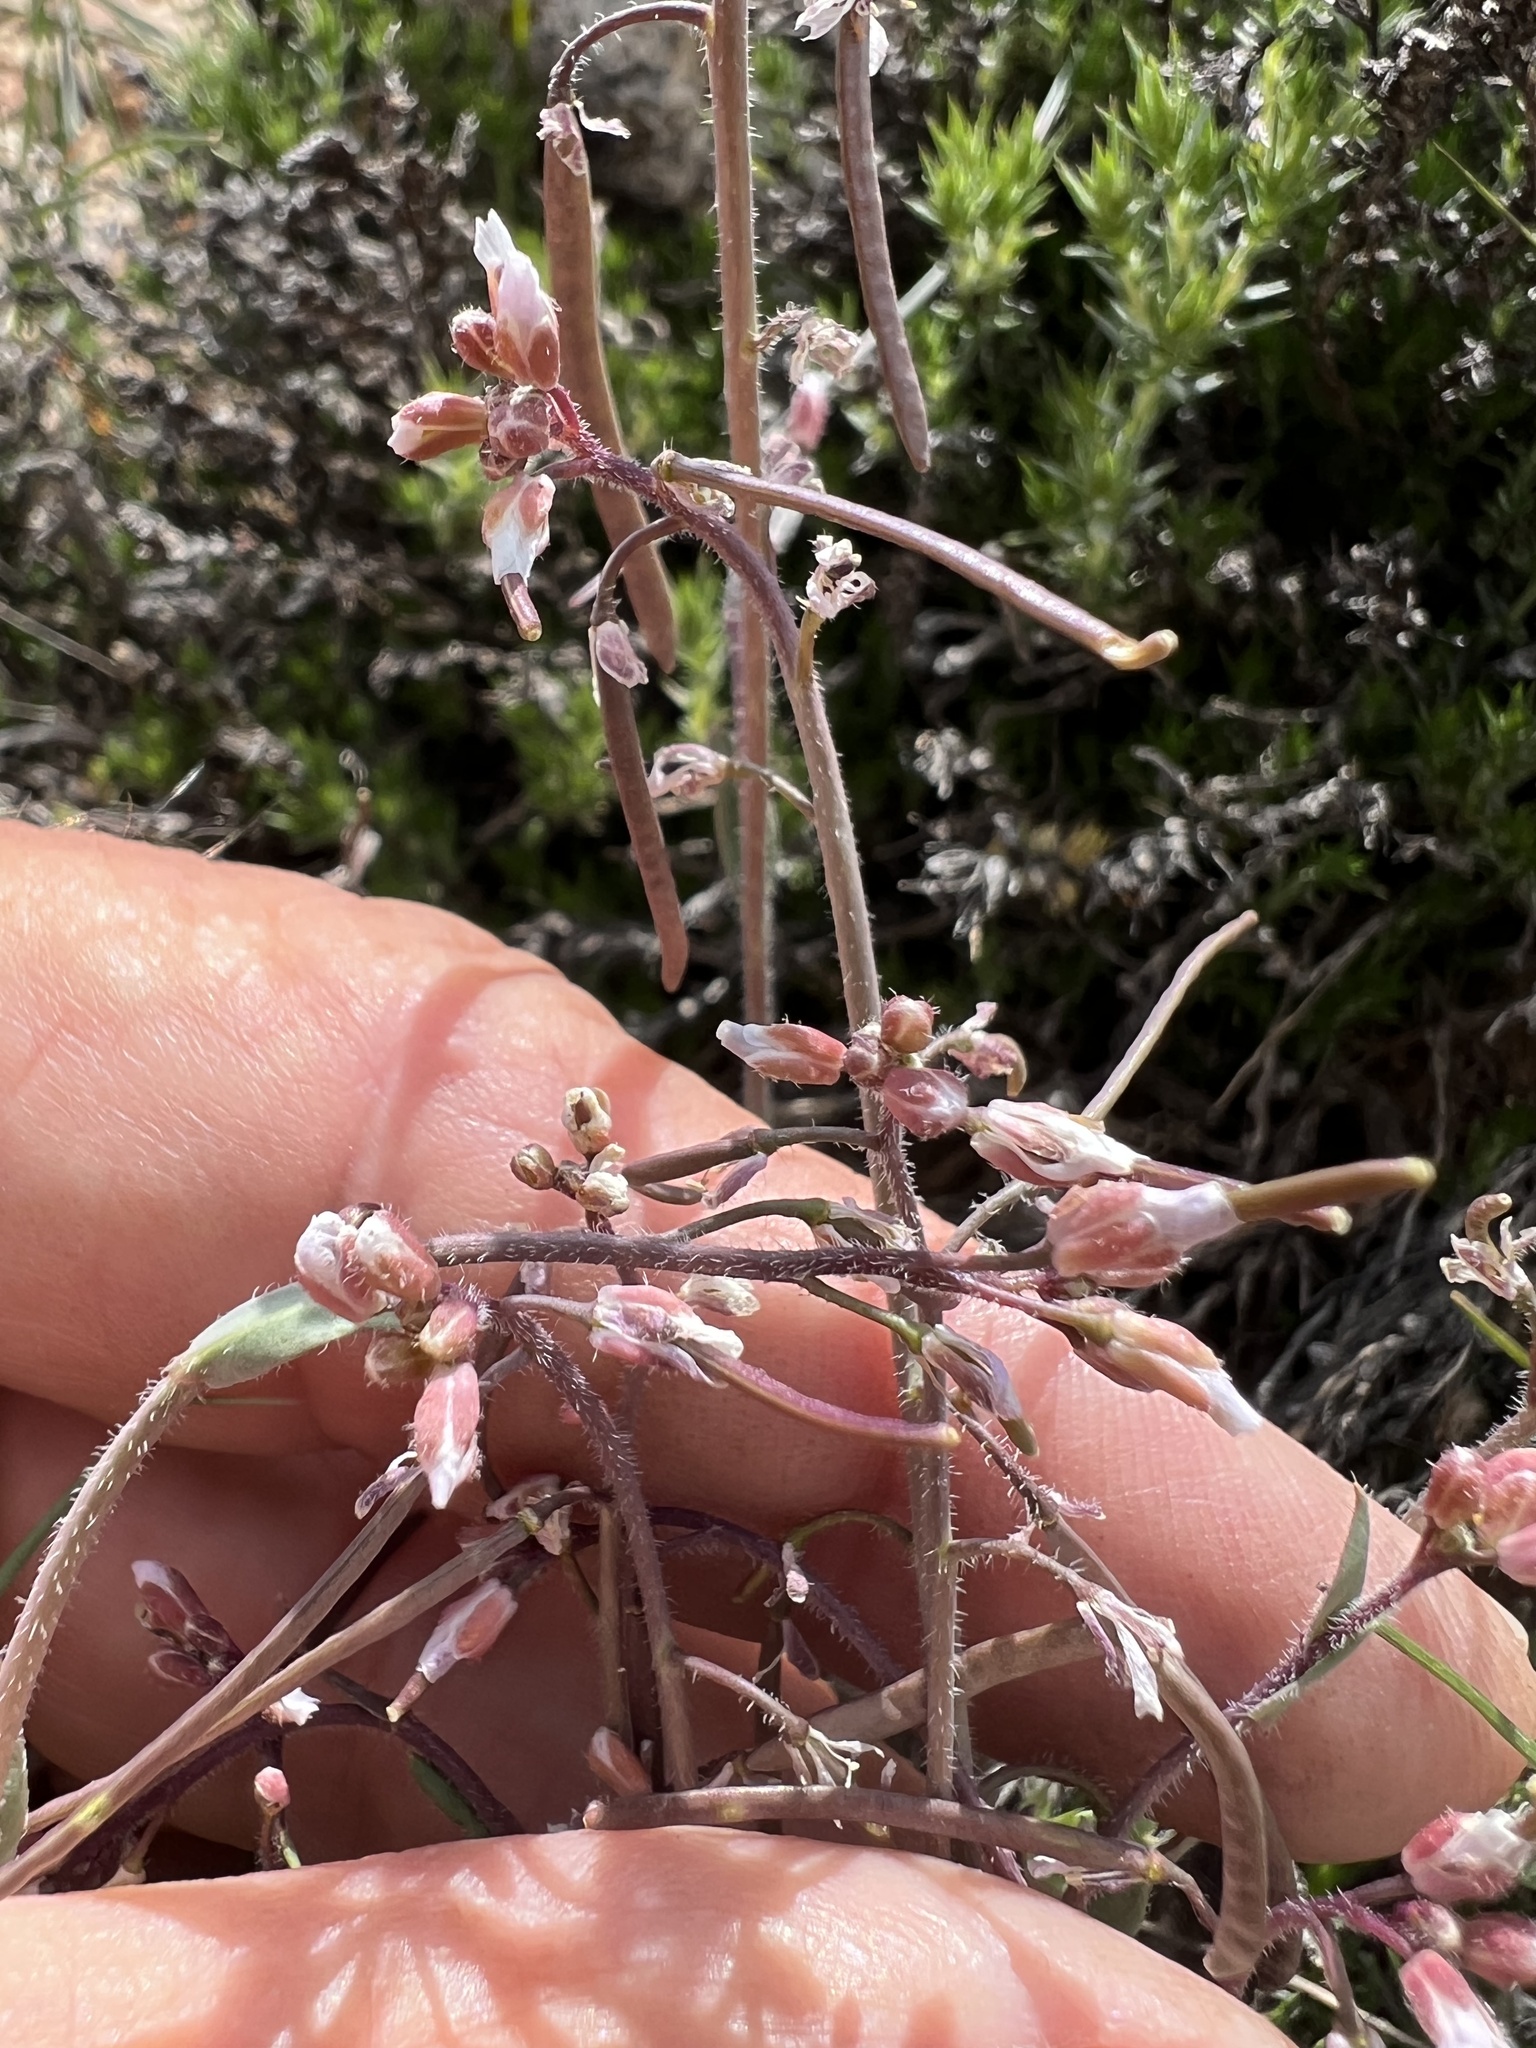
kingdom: Plantae
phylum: Tracheophyta
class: Magnoliopsida
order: Brassicales
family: Brassicaceae
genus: Boechera
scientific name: Boechera pendulina
